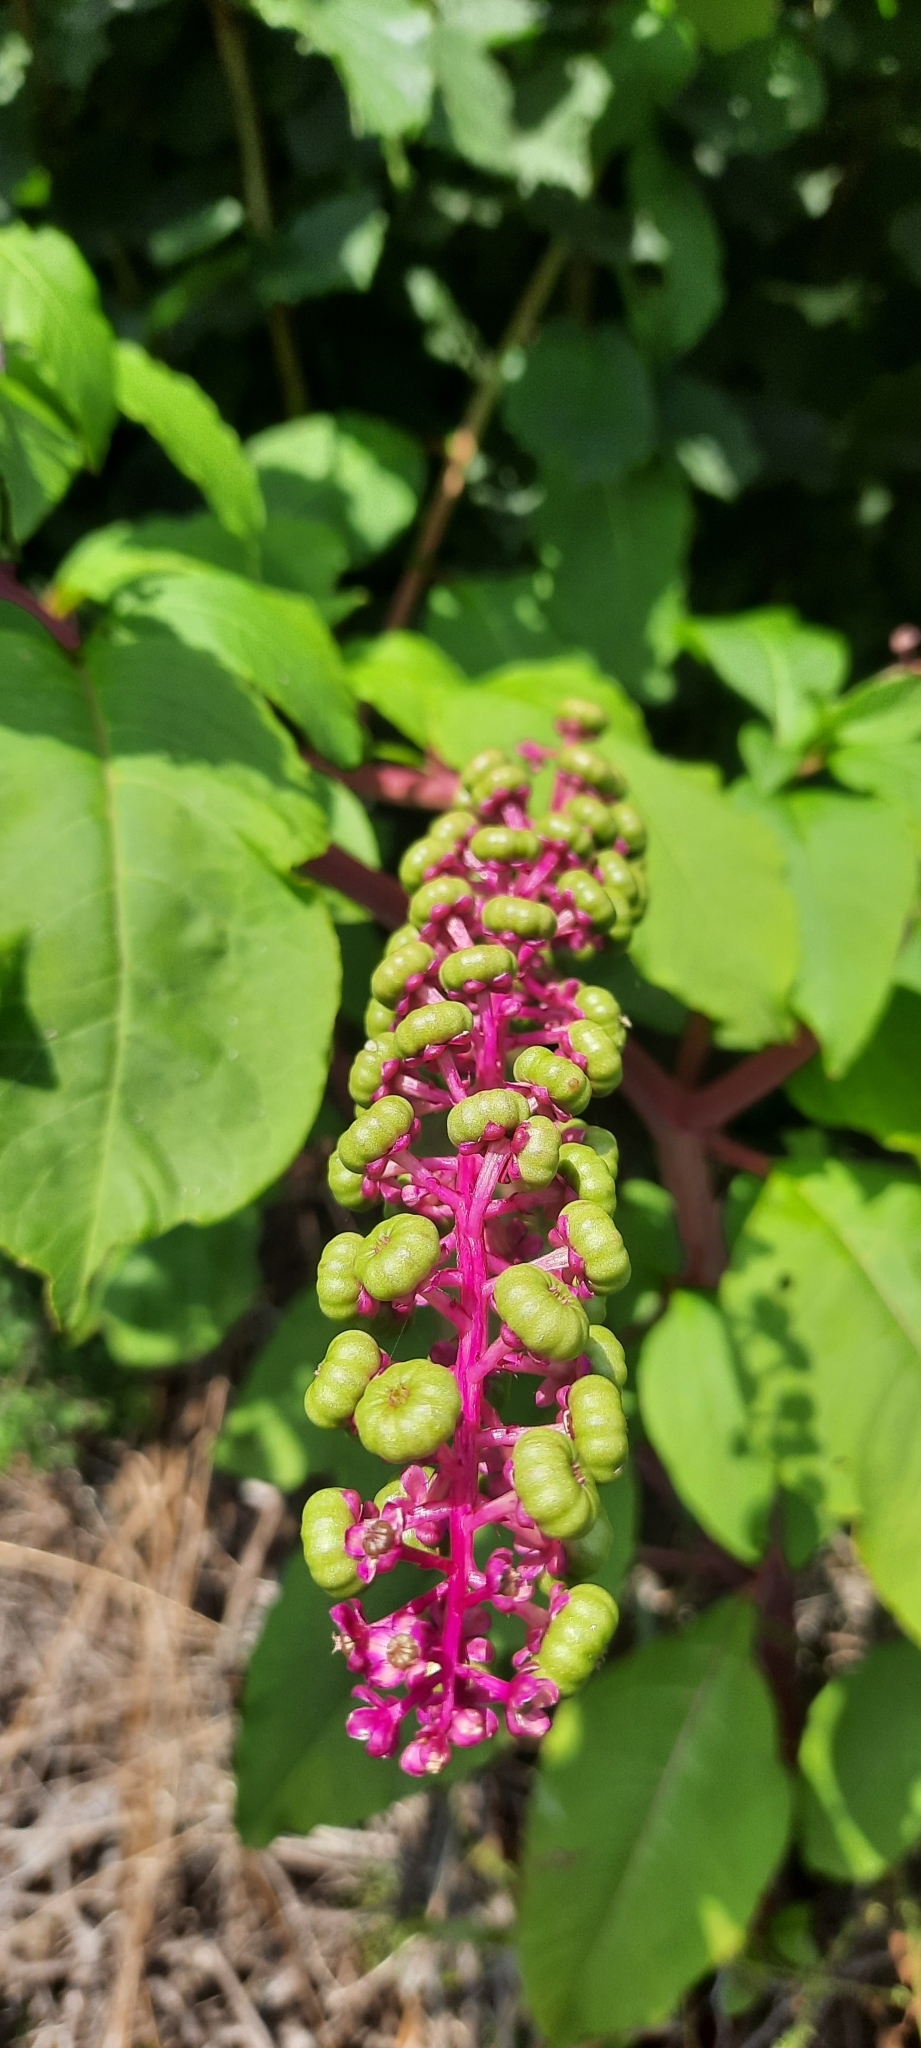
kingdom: Plantae
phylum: Tracheophyta
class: Magnoliopsida
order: Caryophyllales
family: Phytolaccaceae
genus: Phytolacca
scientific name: Phytolacca americana
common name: American pokeweed
